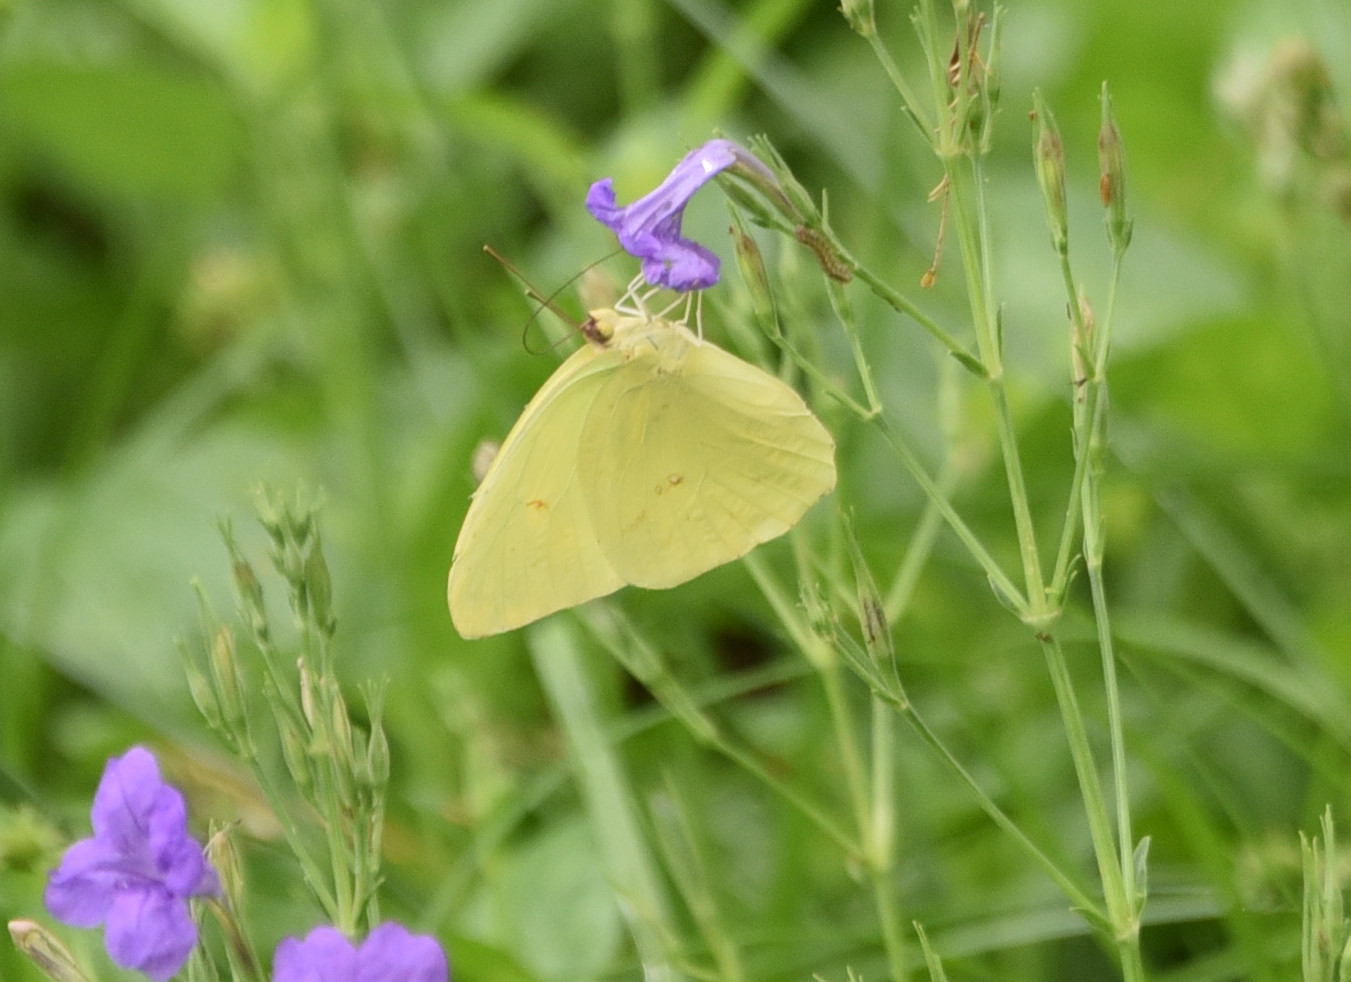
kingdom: Animalia
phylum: Arthropoda
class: Insecta
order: Lepidoptera
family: Pieridae
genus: Phoebis
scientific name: Phoebis sennae
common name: Cloudless sulphur
